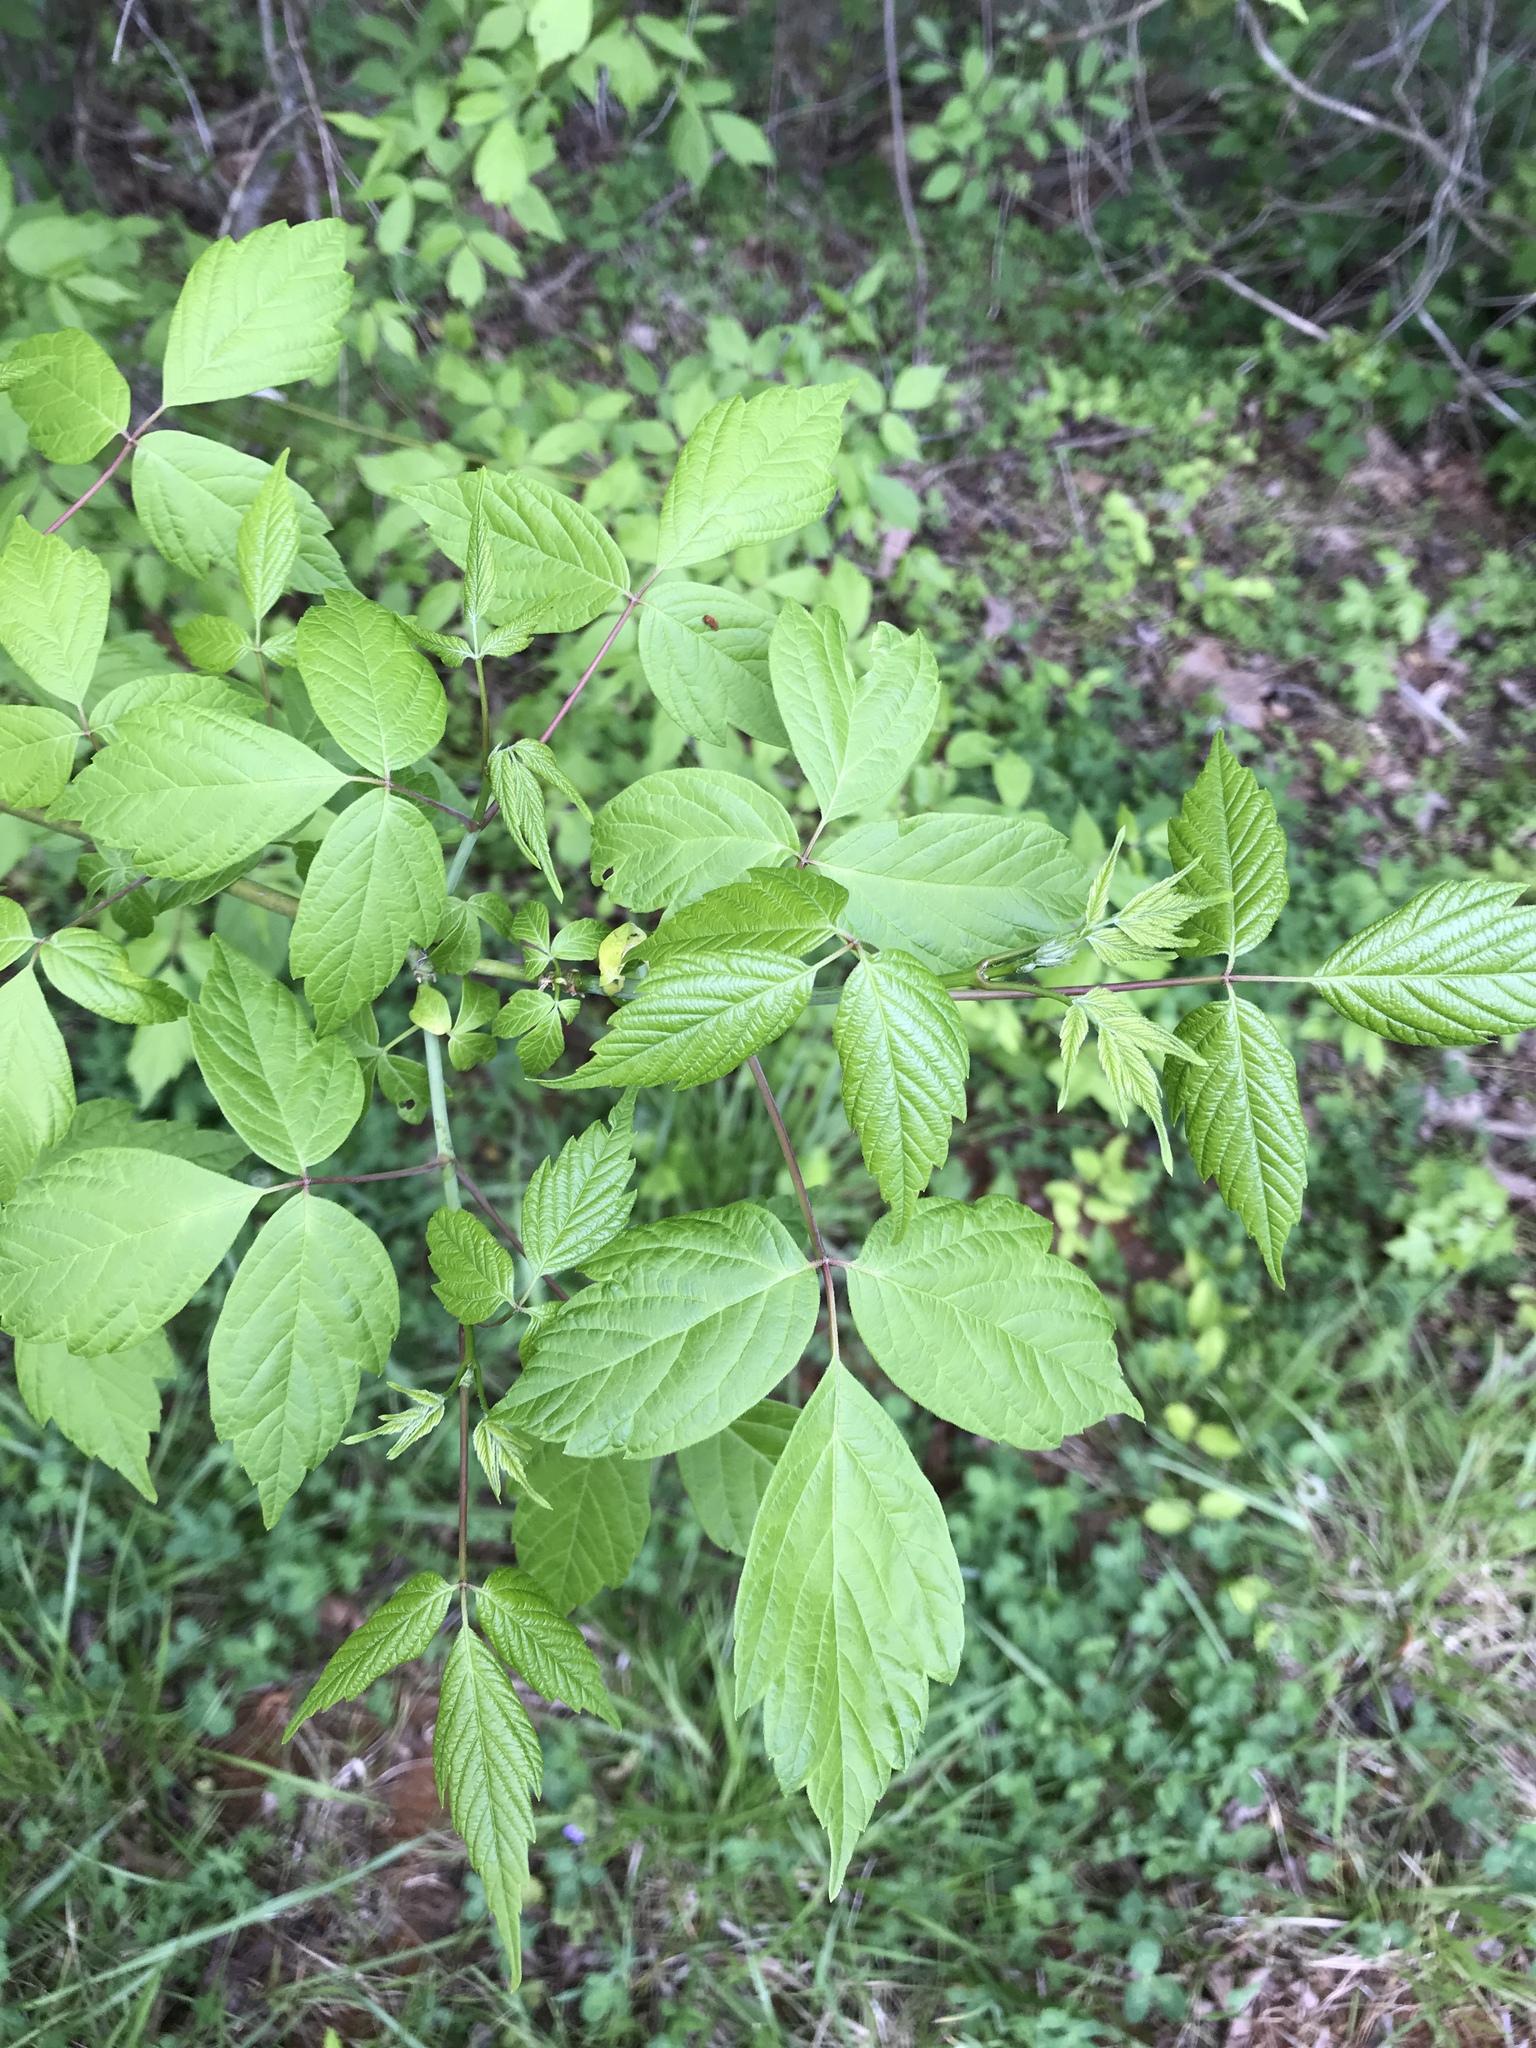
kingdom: Plantae
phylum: Tracheophyta
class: Magnoliopsida
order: Sapindales
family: Sapindaceae
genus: Acer
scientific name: Acer negundo
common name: Ashleaf maple
